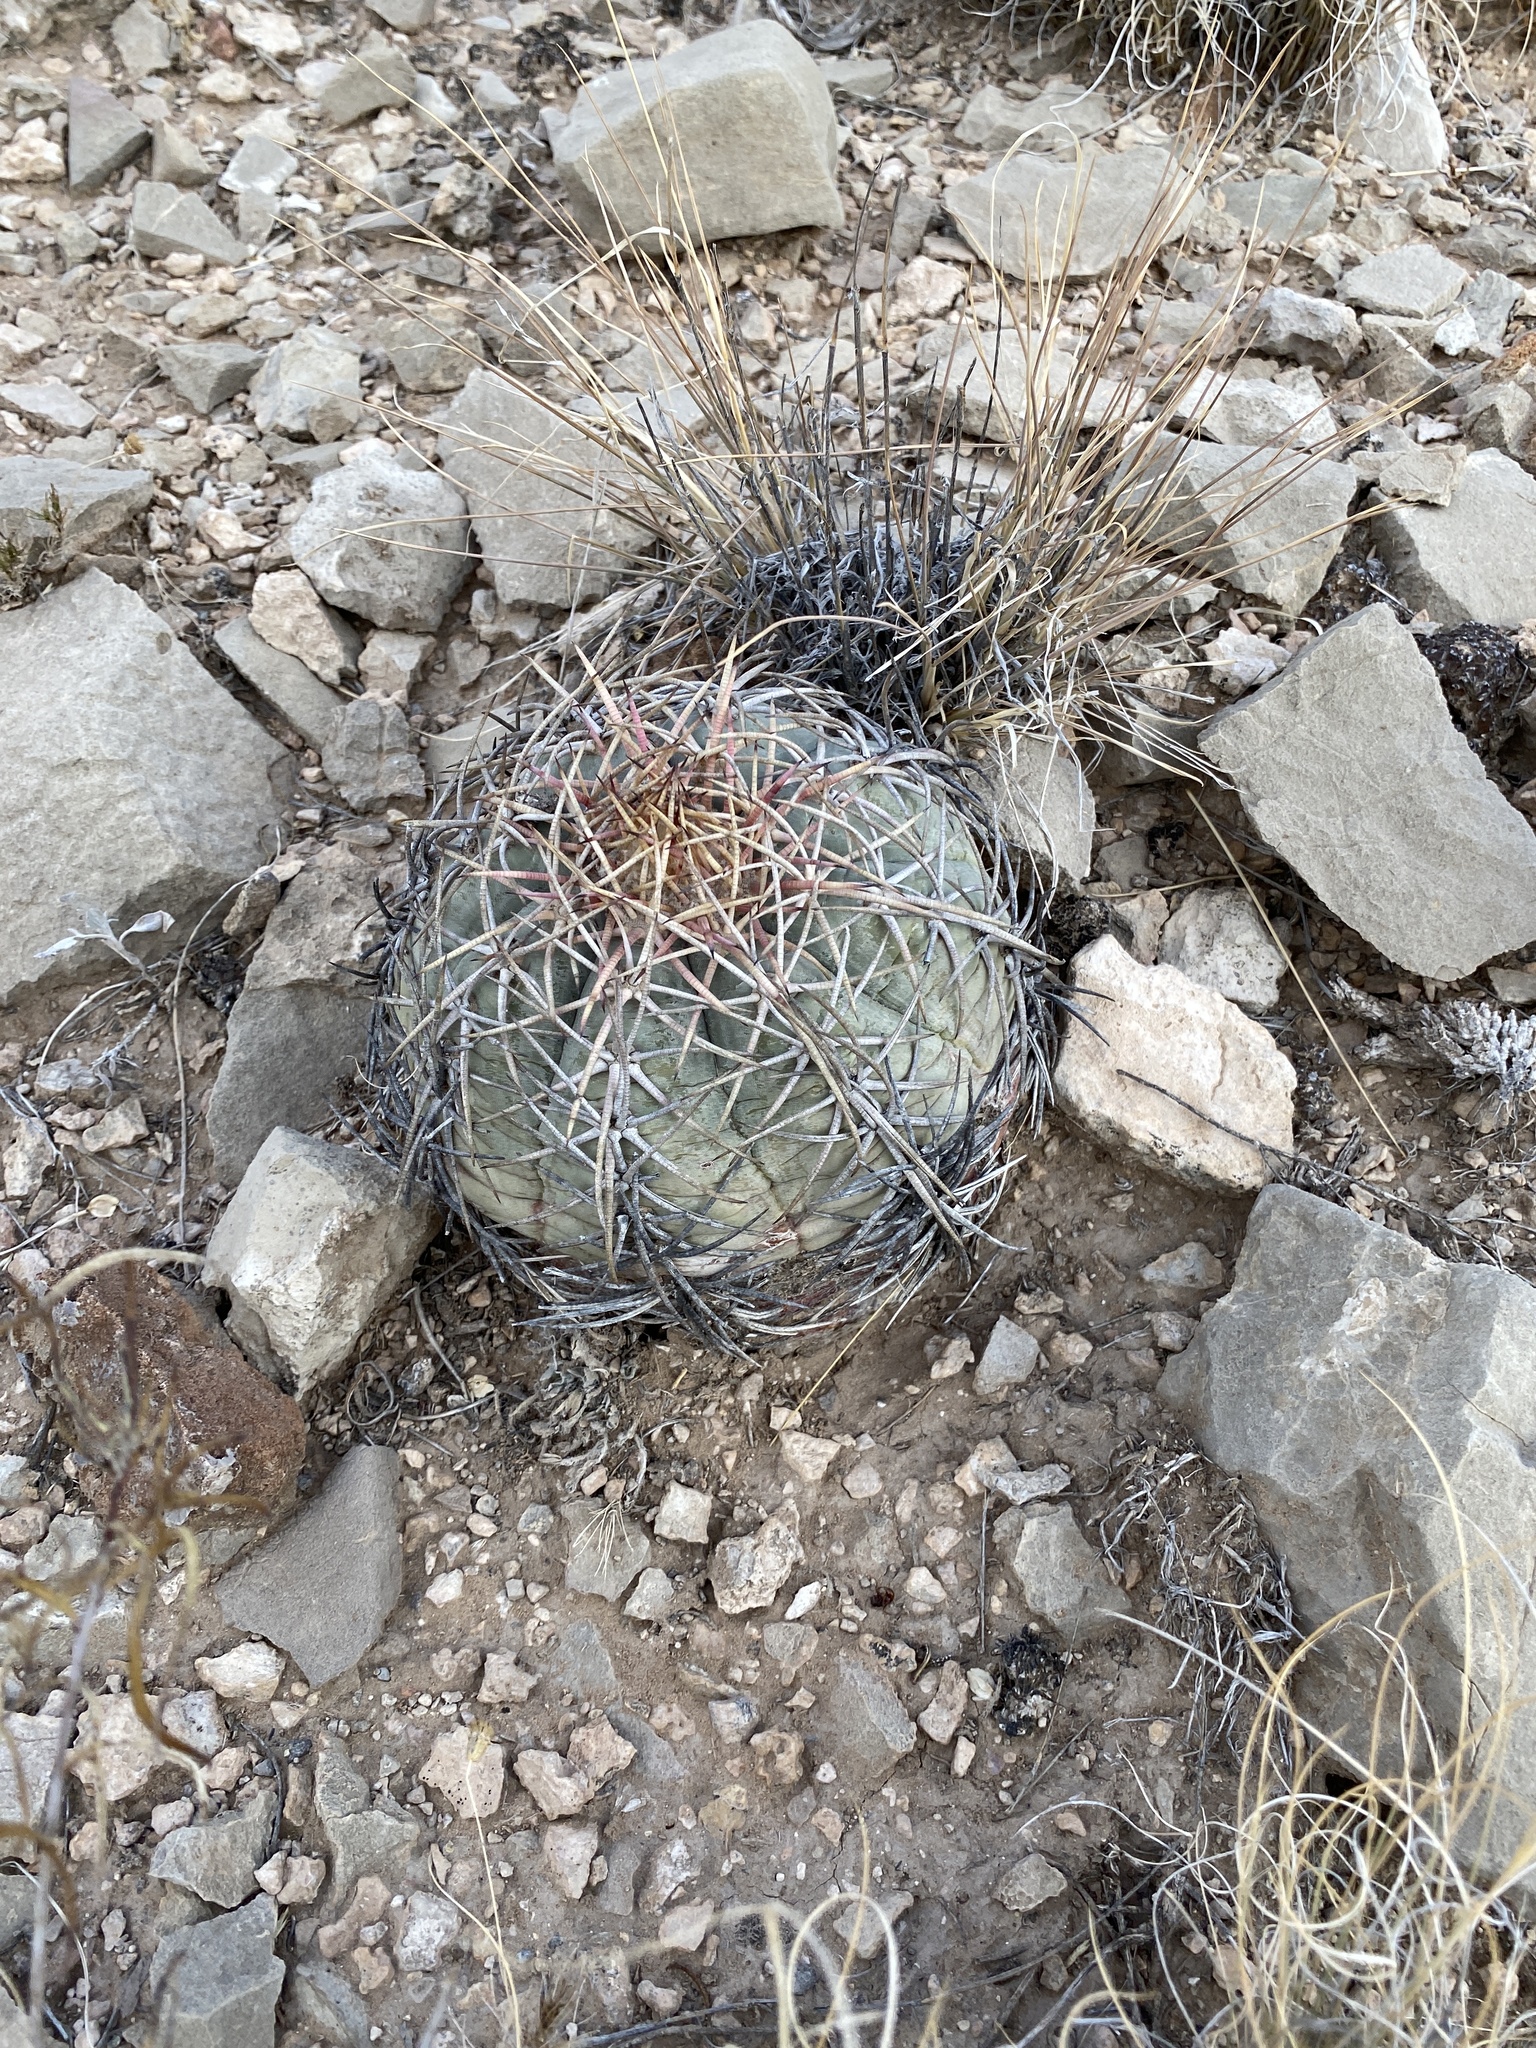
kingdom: Plantae
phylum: Tracheophyta
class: Magnoliopsida
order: Caryophyllales
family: Cactaceae
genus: Echinocactus
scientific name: Echinocactus horizonthalonius
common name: Devilshead
